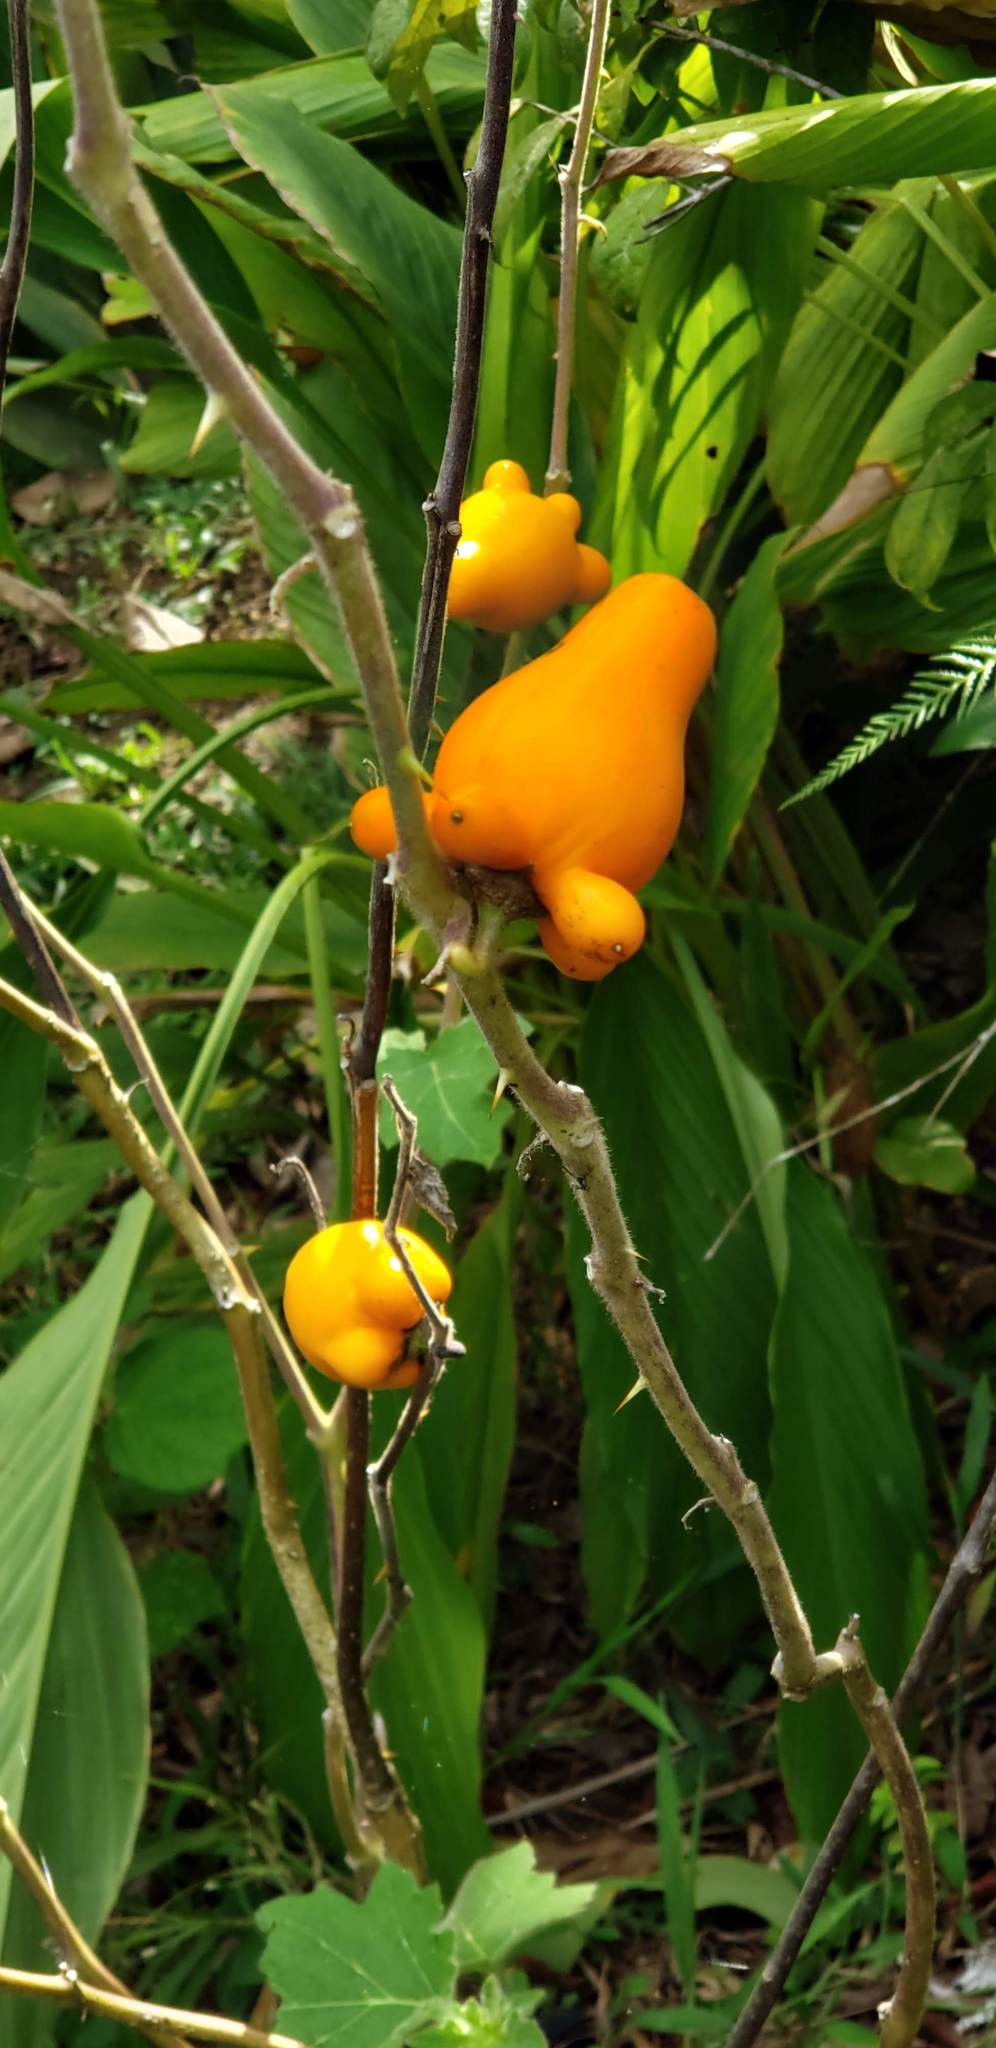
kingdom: Plantae
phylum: Tracheophyta
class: Magnoliopsida
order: Solanales
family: Solanaceae
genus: Solanum
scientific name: Solanum mammosum
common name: Nipple fruit
